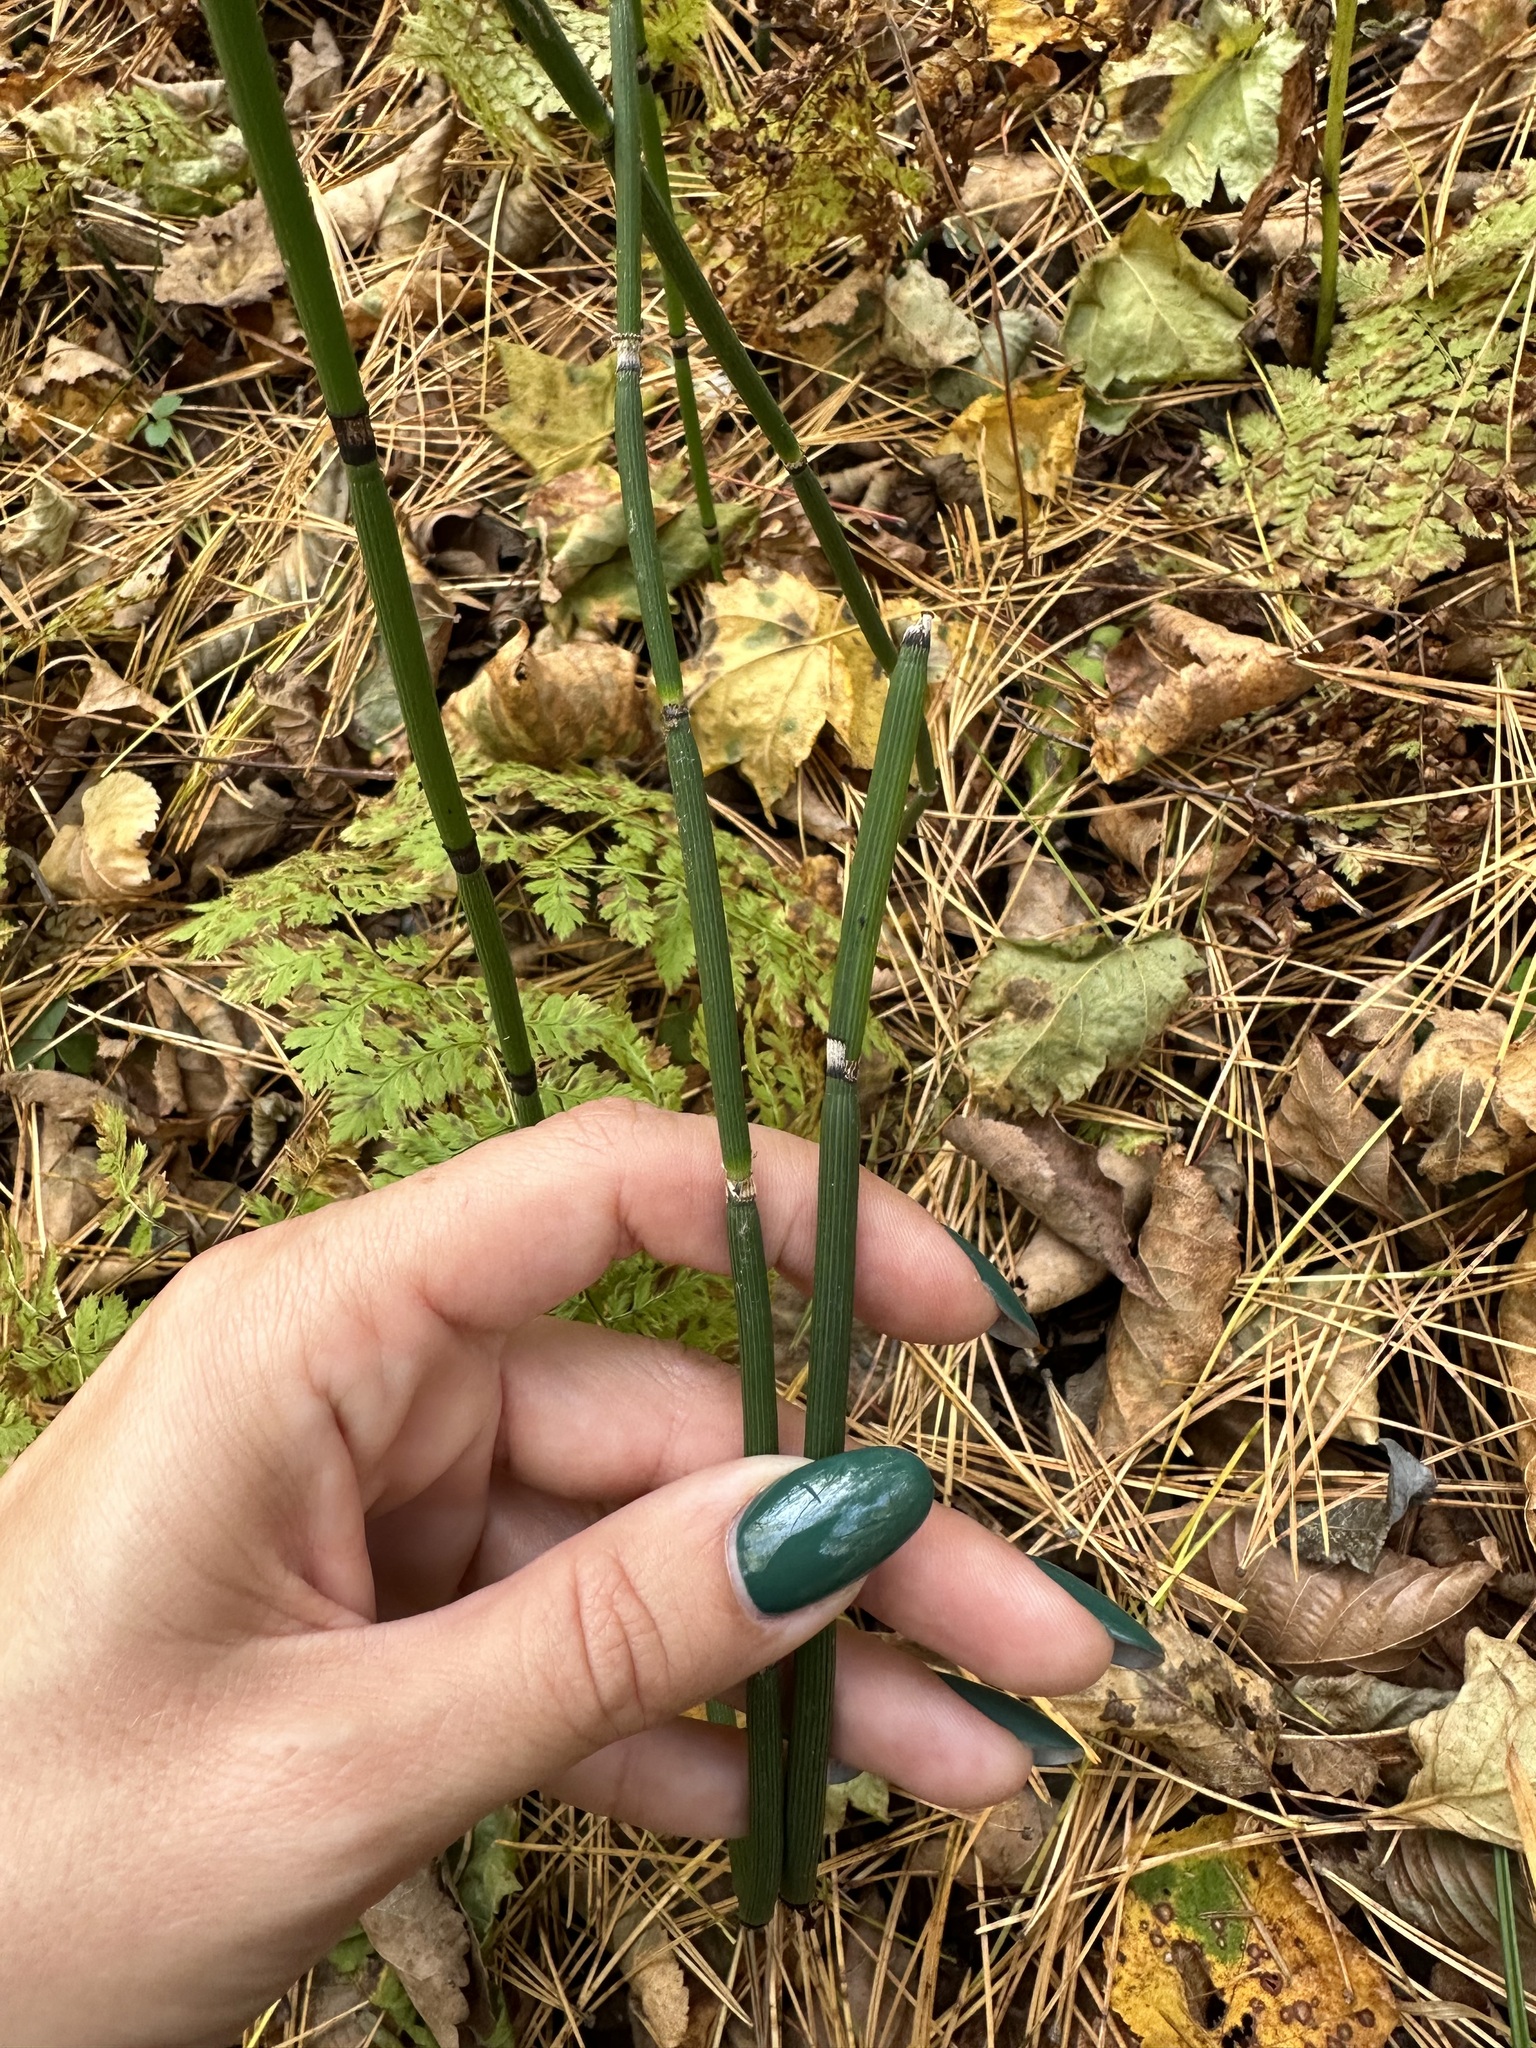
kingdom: Plantae
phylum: Tracheophyta
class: Polypodiopsida
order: Equisetales
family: Equisetaceae
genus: Equisetum
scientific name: Equisetum hyemale
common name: Rough horsetail
